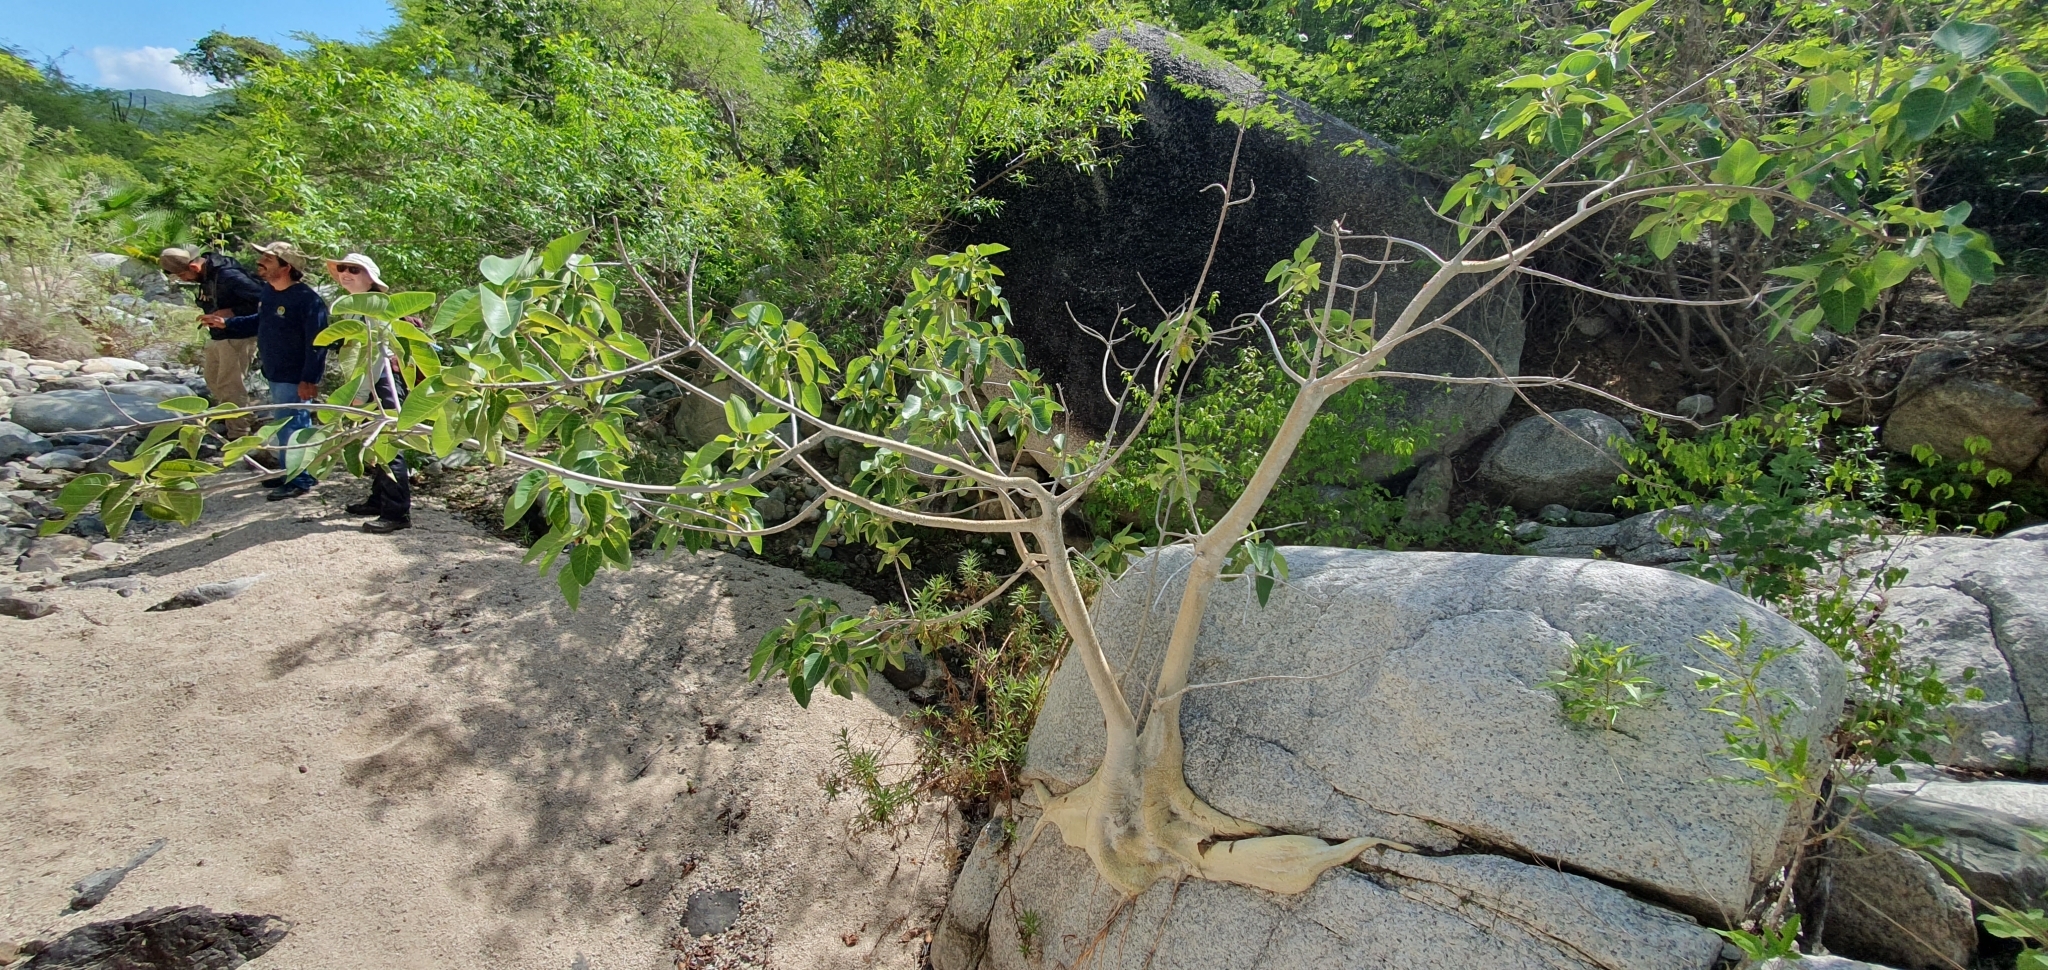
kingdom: Plantae
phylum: Tracheophyta
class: Magnoliopsida
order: Rosales
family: Moraceae
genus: Ficus
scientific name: Ficus petiolaris
